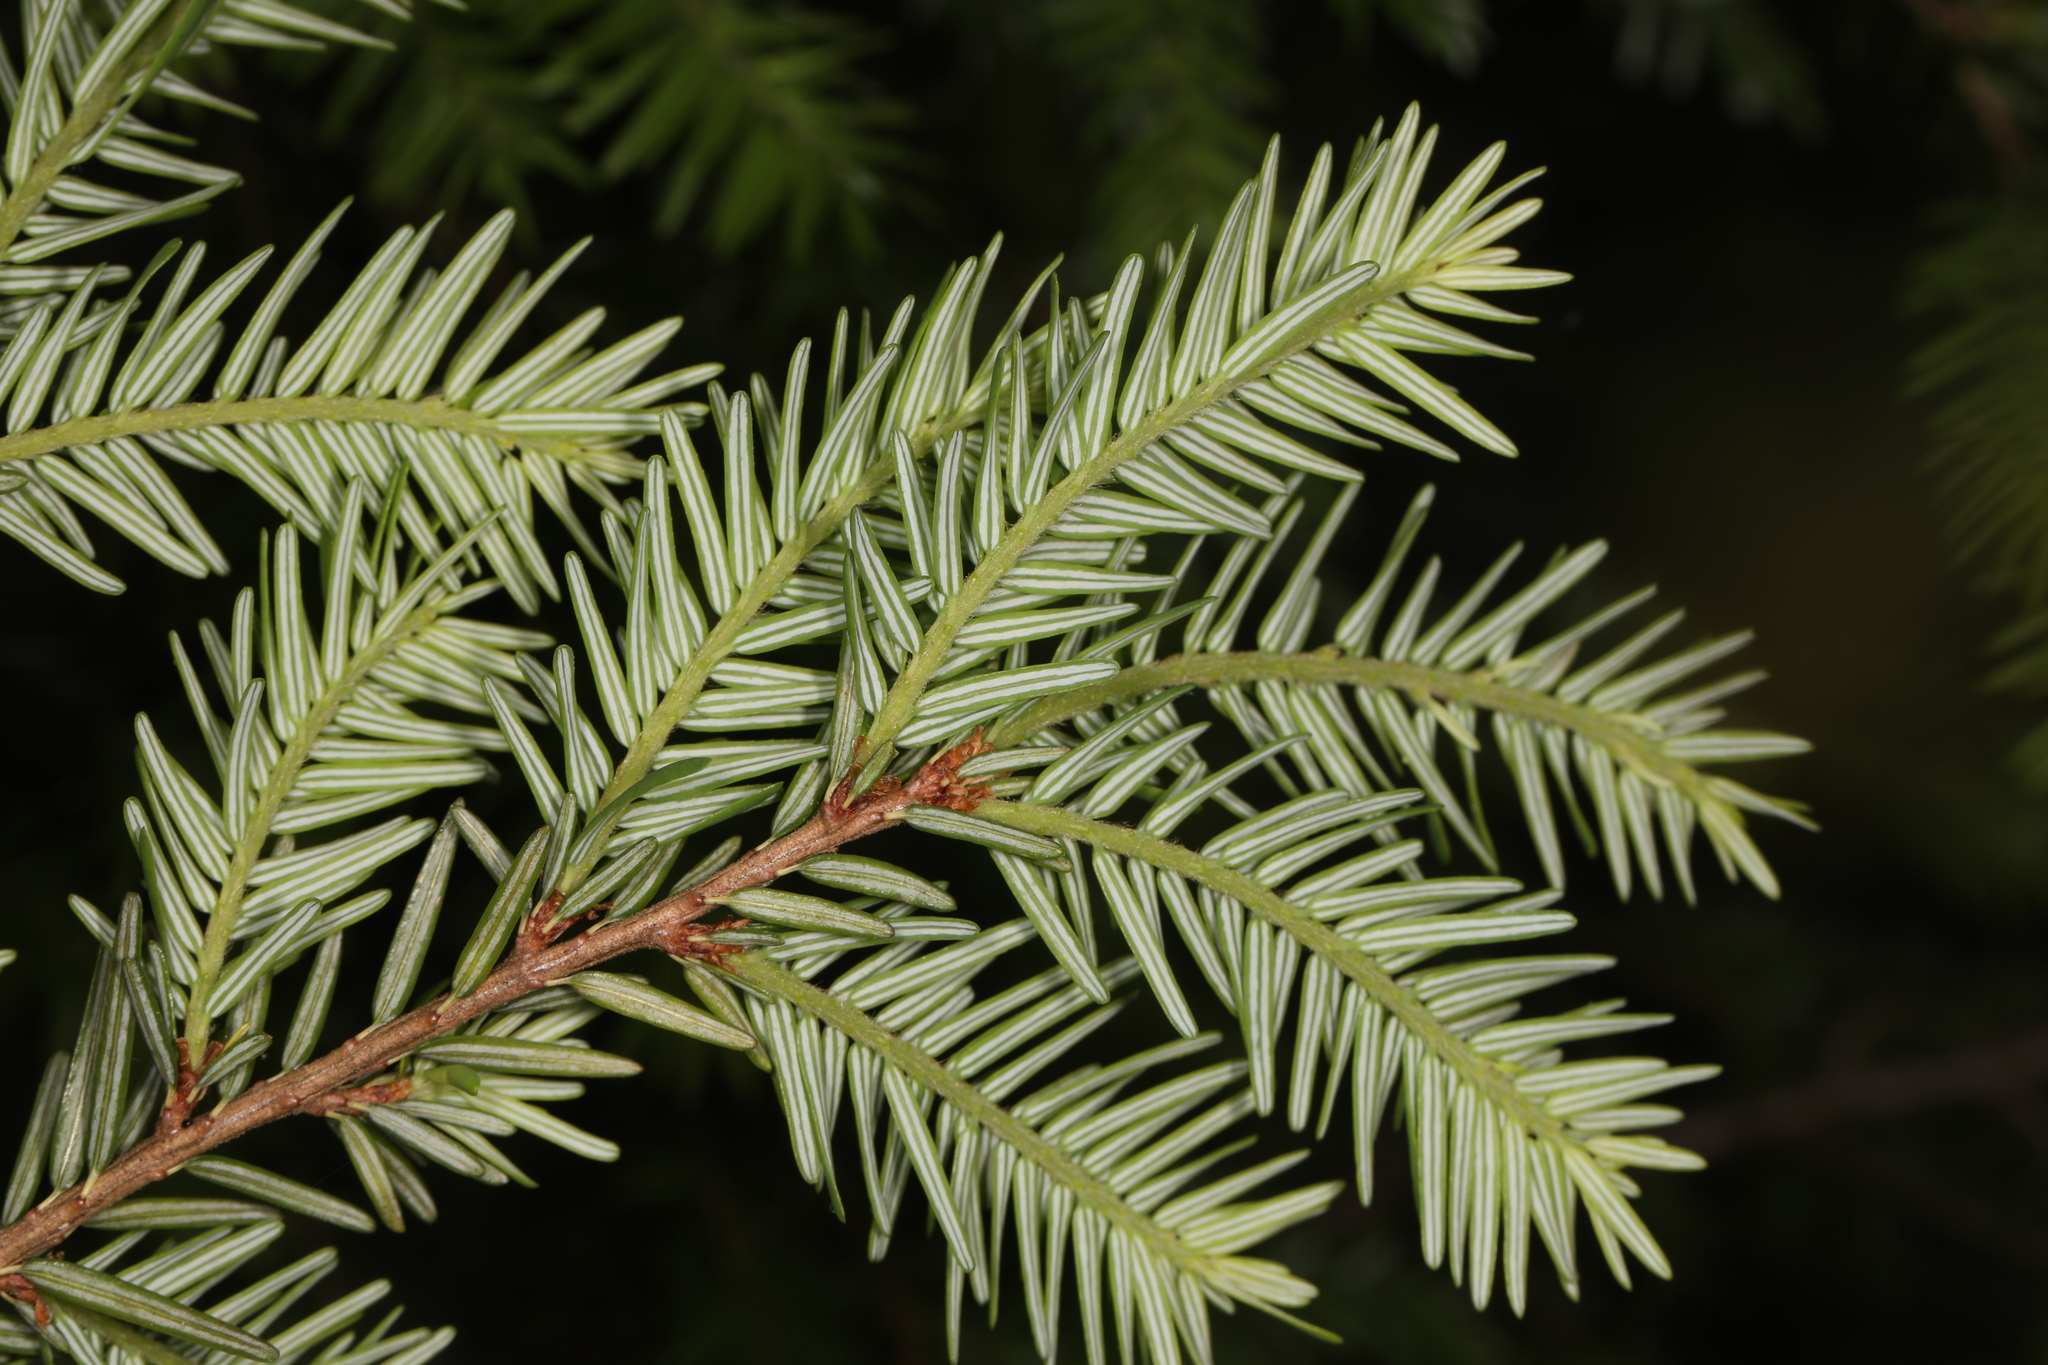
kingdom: Plantae
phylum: Tracheophyta
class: Pinopsida
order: Pinales
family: Pinaceae
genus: Tsuga
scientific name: Tsuga canadensis
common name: Eastern hemlock
